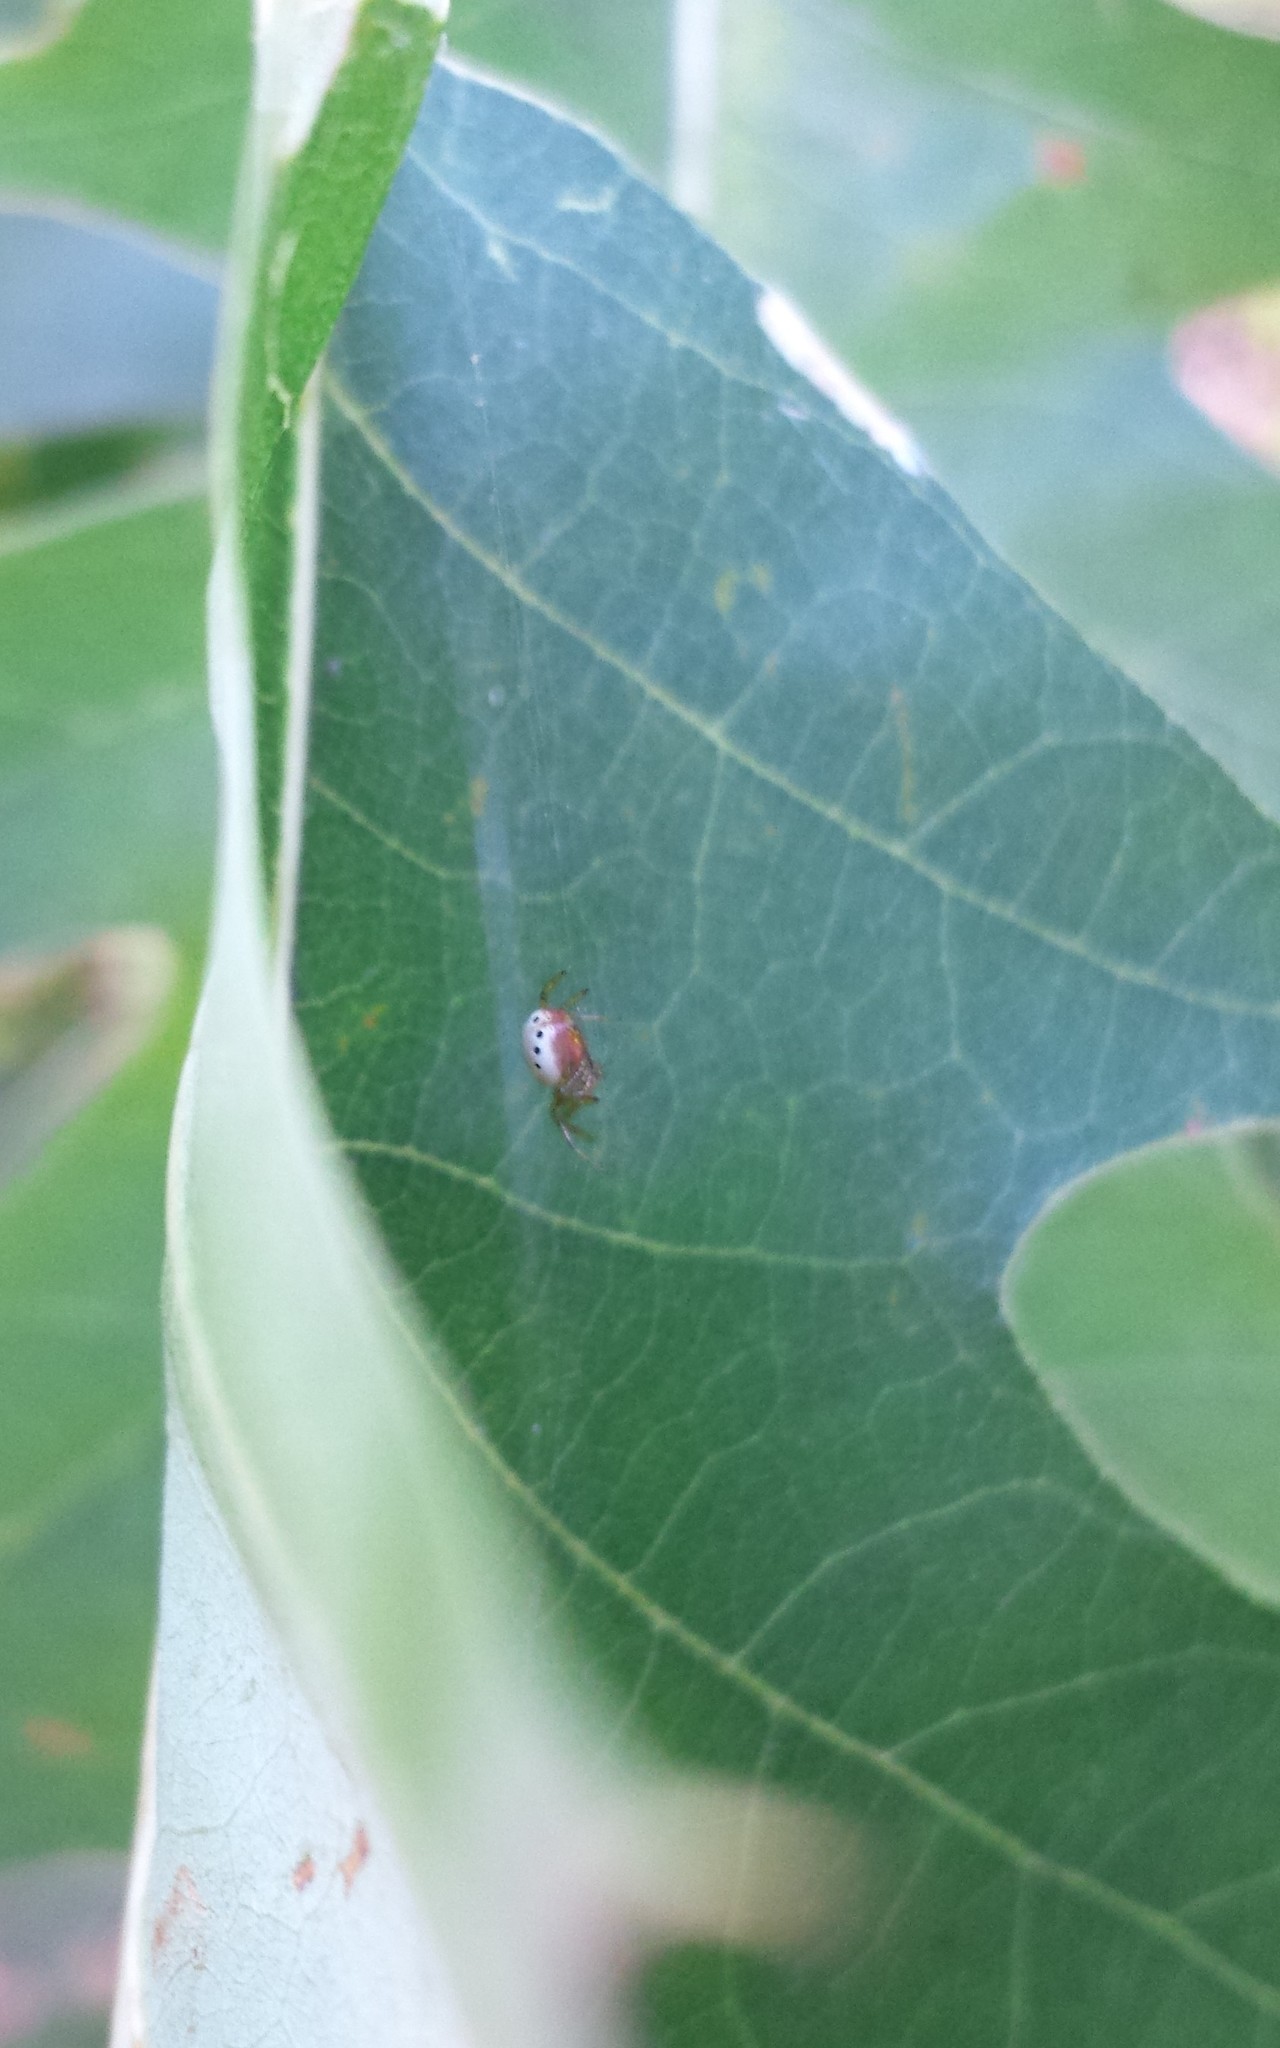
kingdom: Animalia
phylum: Arthropoda
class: Arachnida
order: Araneae
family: Araneidae
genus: Araniella
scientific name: Araniella displicata
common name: Sixspotted orb weaver
